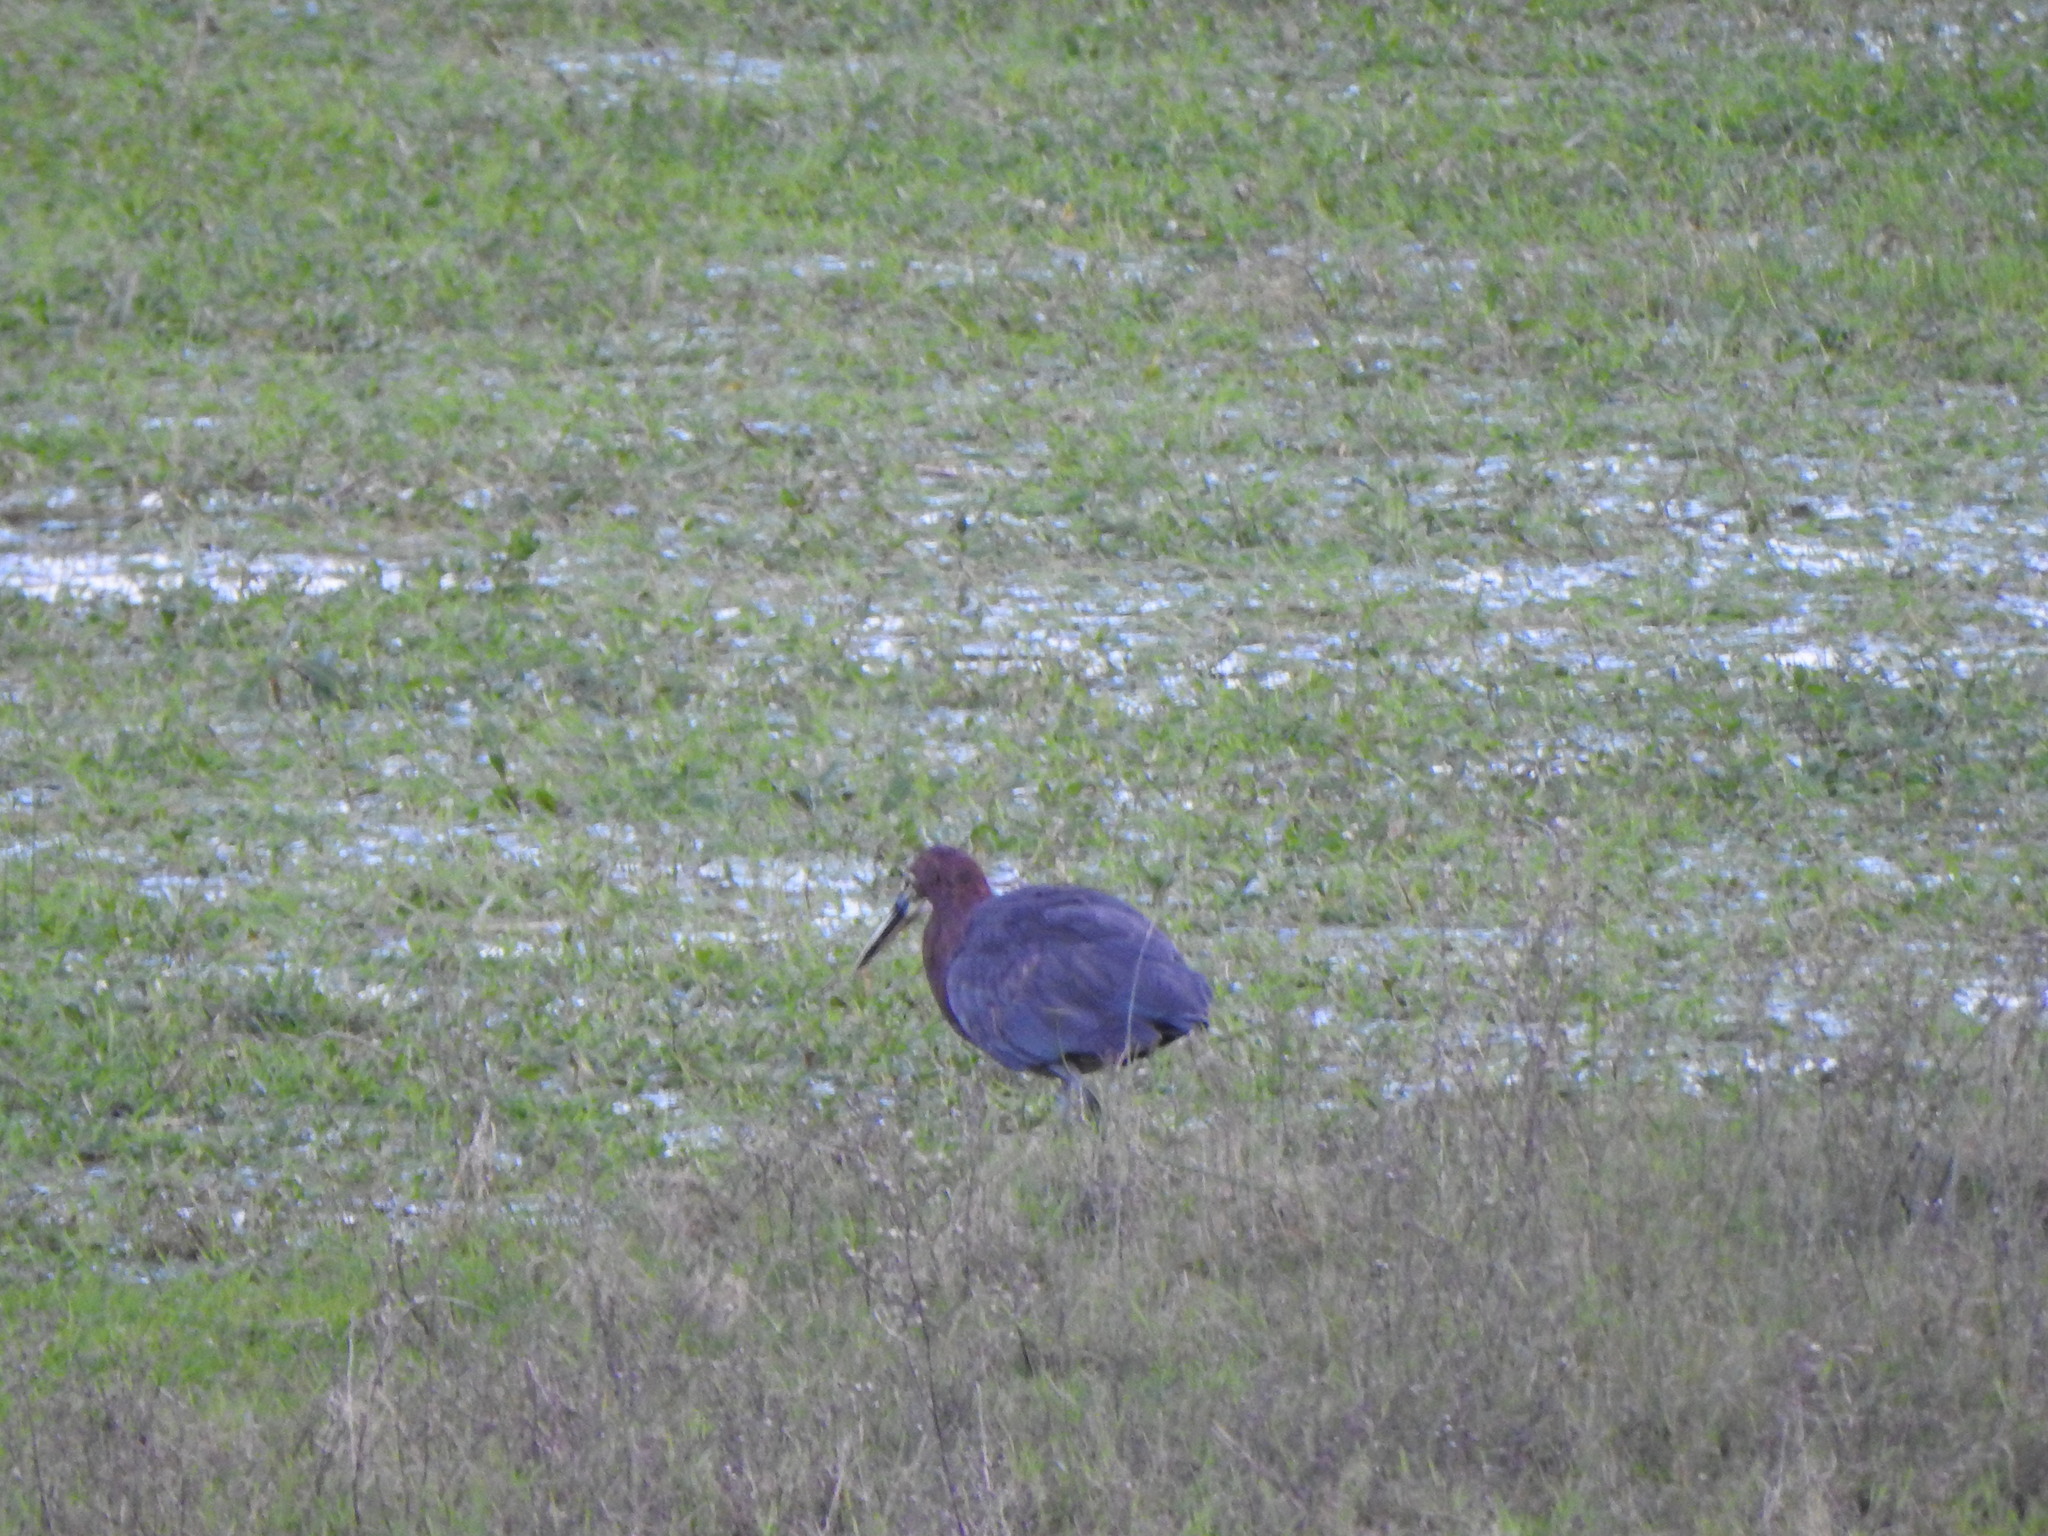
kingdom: Animalia
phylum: Chordata
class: Aves
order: Pelecaniformes
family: Ardeidae
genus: Tigrisoma
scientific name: Tigrisoma lineatum
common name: Rufescent tiger-heron
